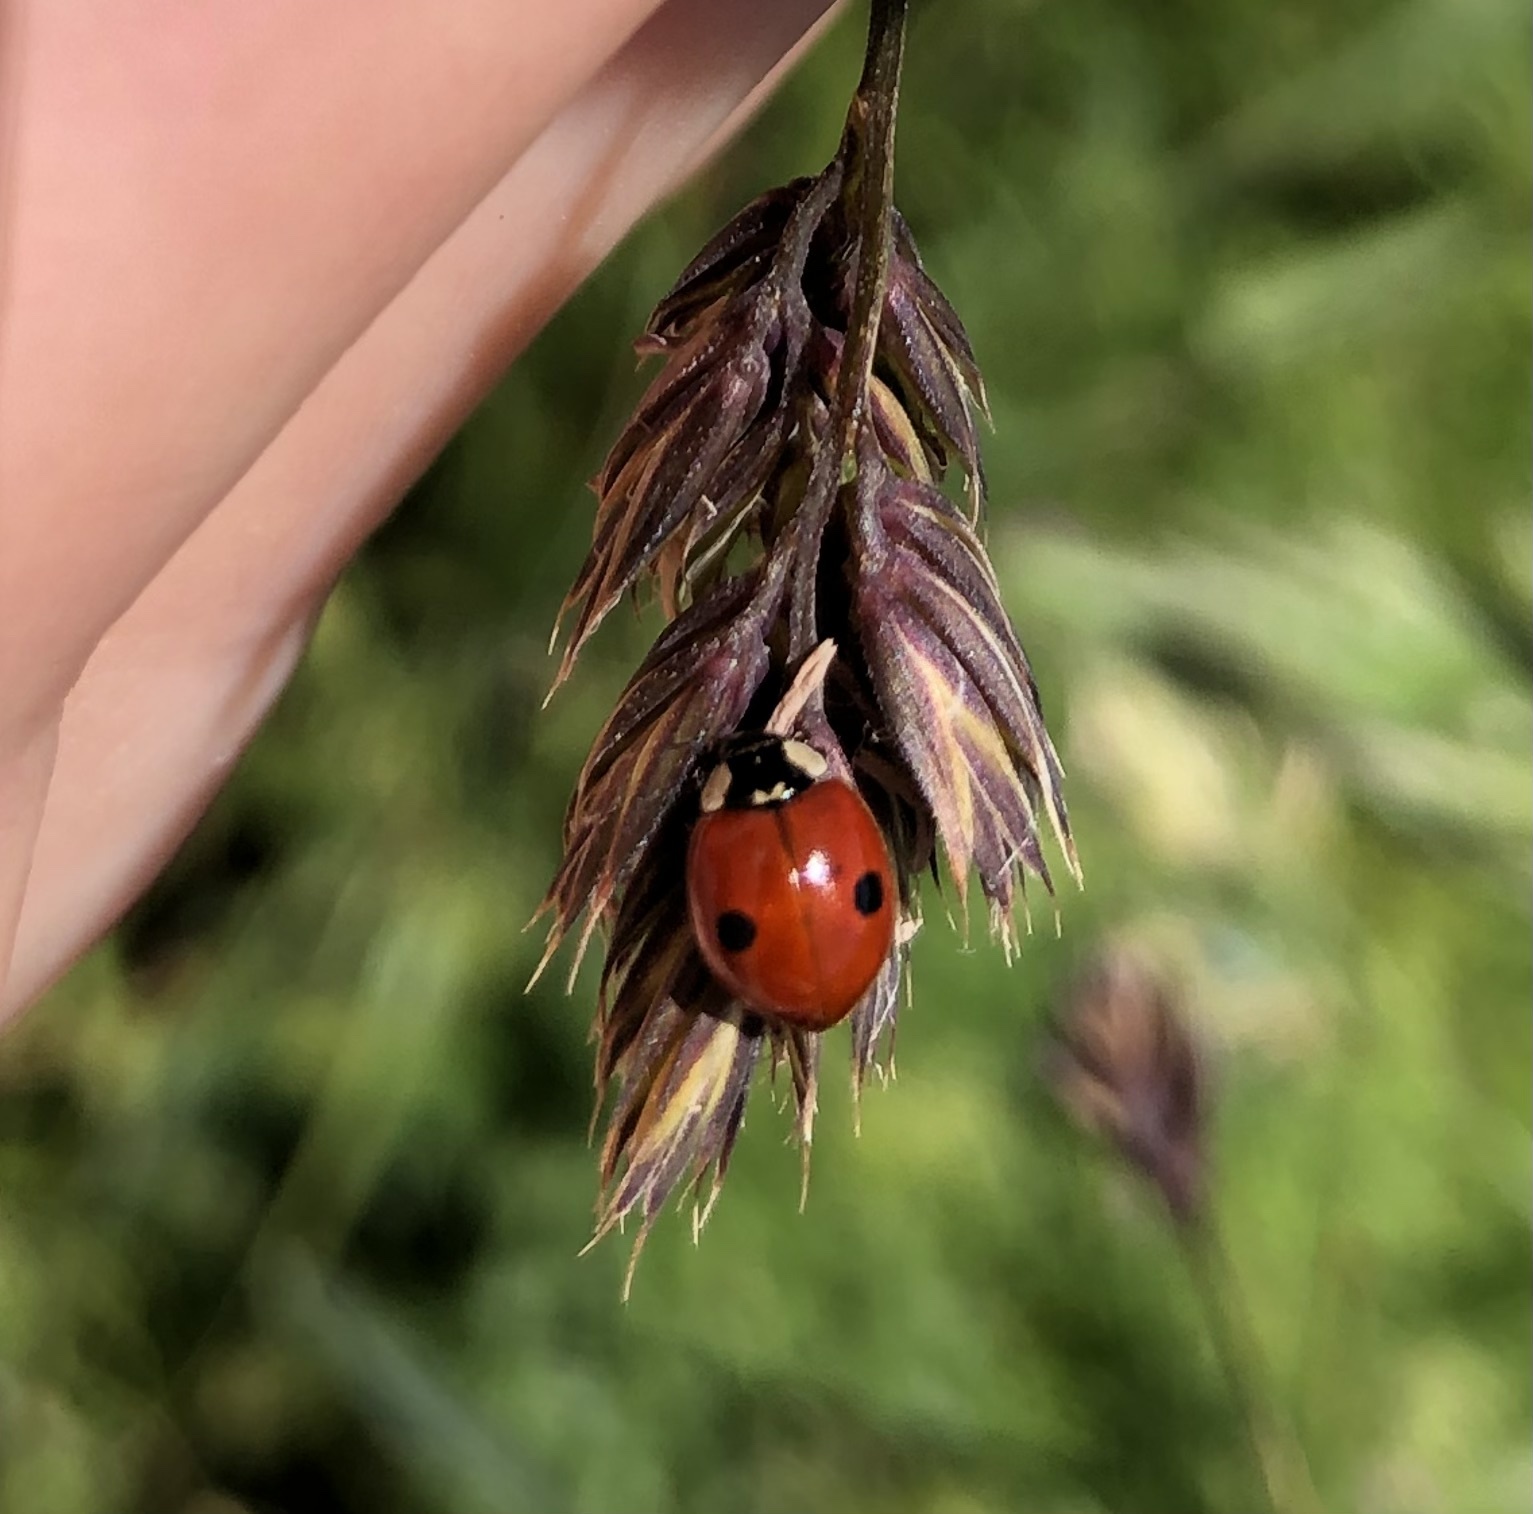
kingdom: Animalia
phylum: Arthropoda
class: Insecta
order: Coleoptera
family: Coccinellidae
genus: Adalia
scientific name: Adalia bipunctata
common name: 2-spot ladybird
